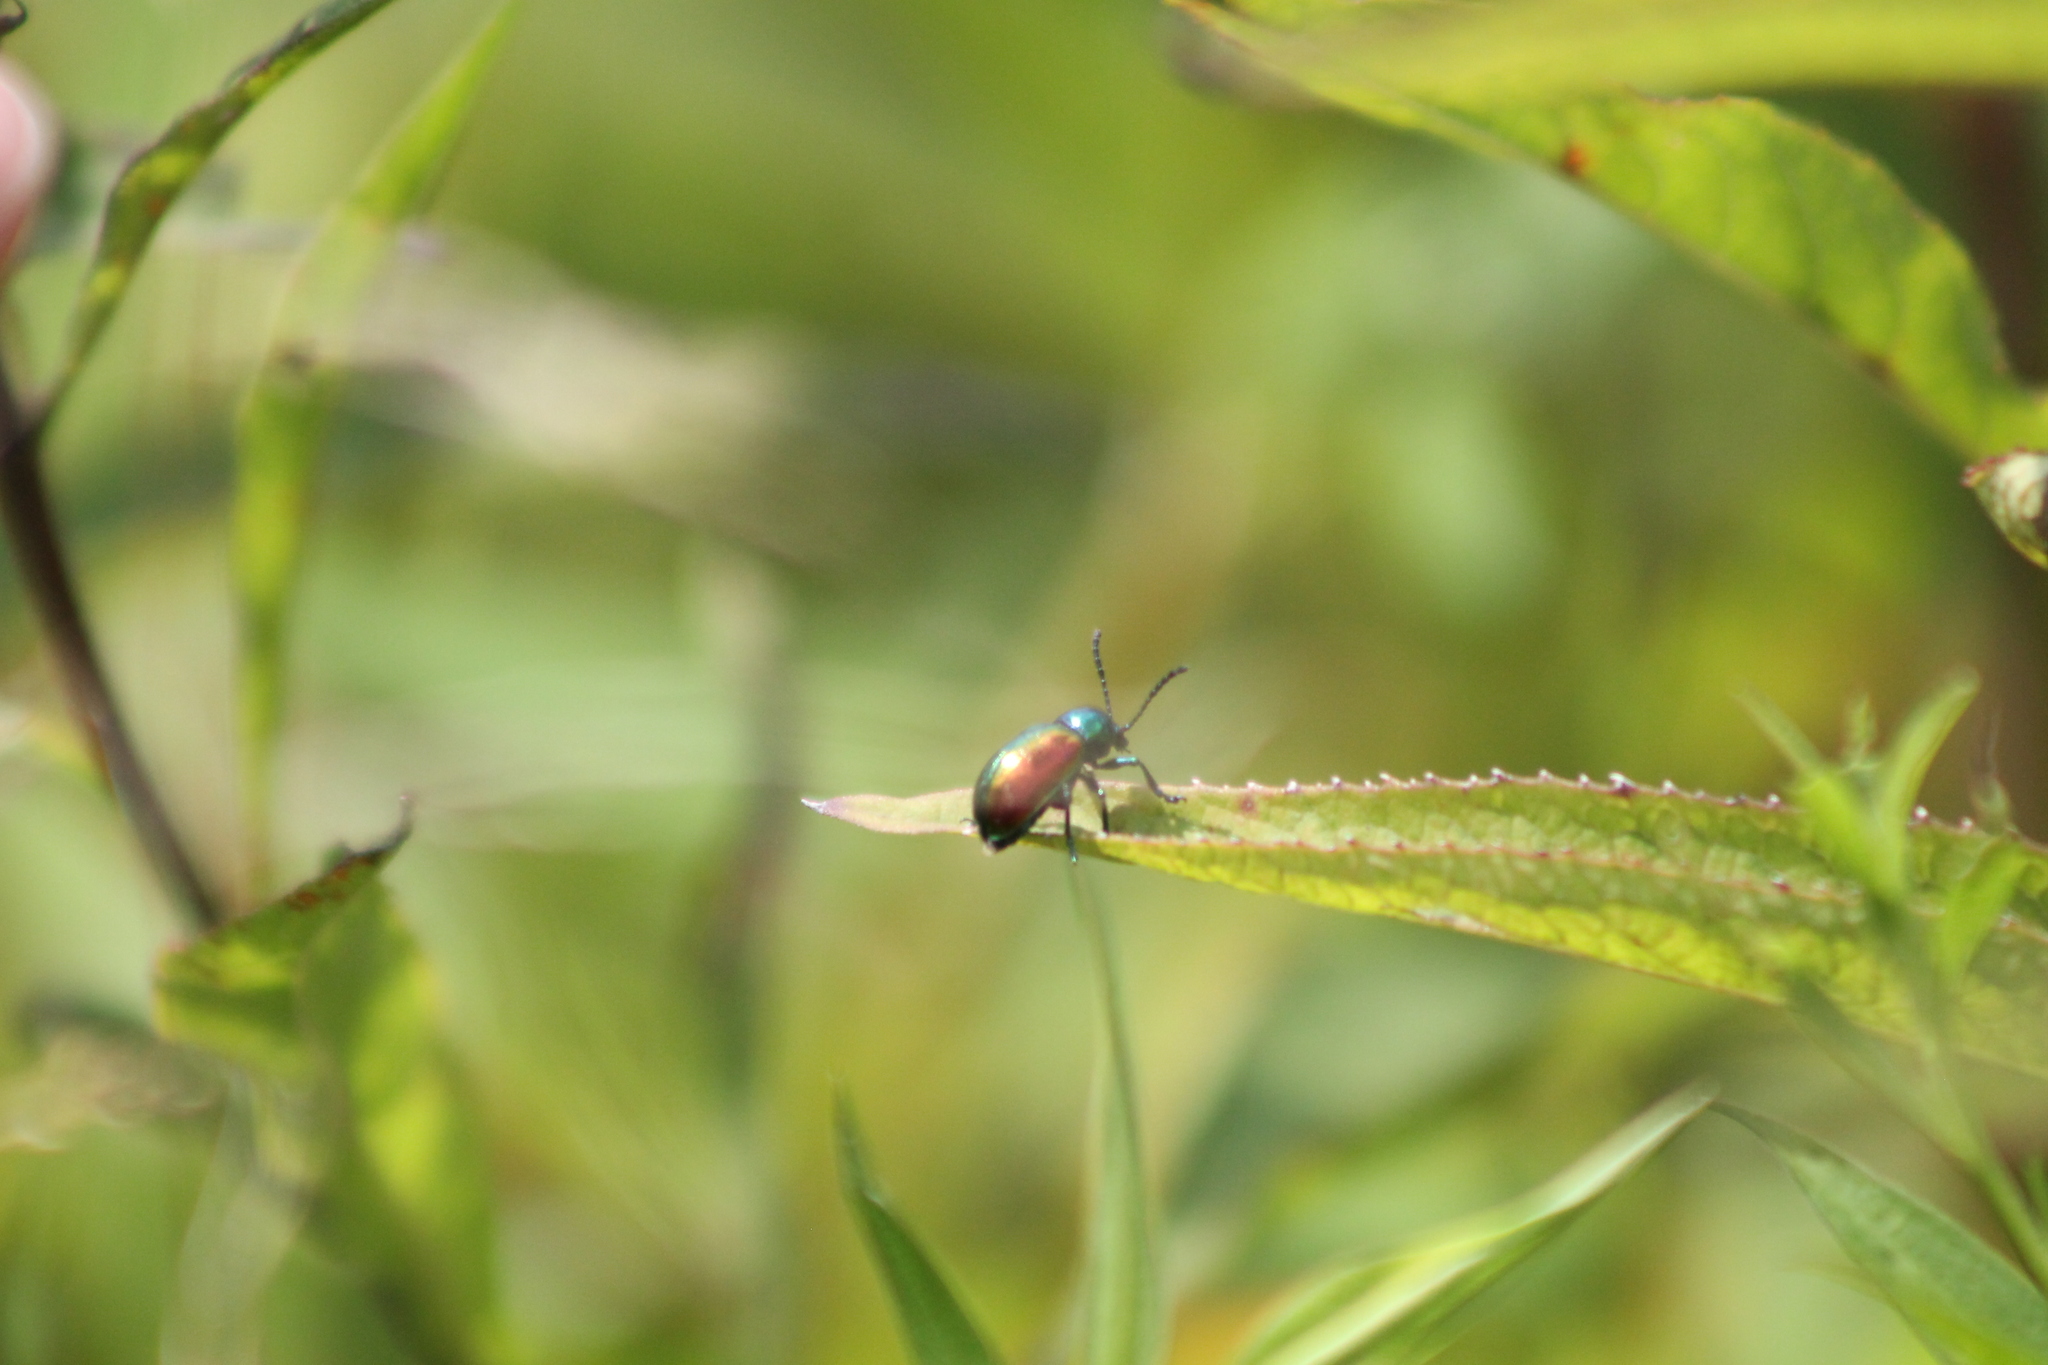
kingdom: Animalia
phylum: Arthropoda
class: Insecta
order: Coleoptera
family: Chrysomelidae
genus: Chrysochus
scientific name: Chrysochus auratus
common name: Dogbane leaf beetle
